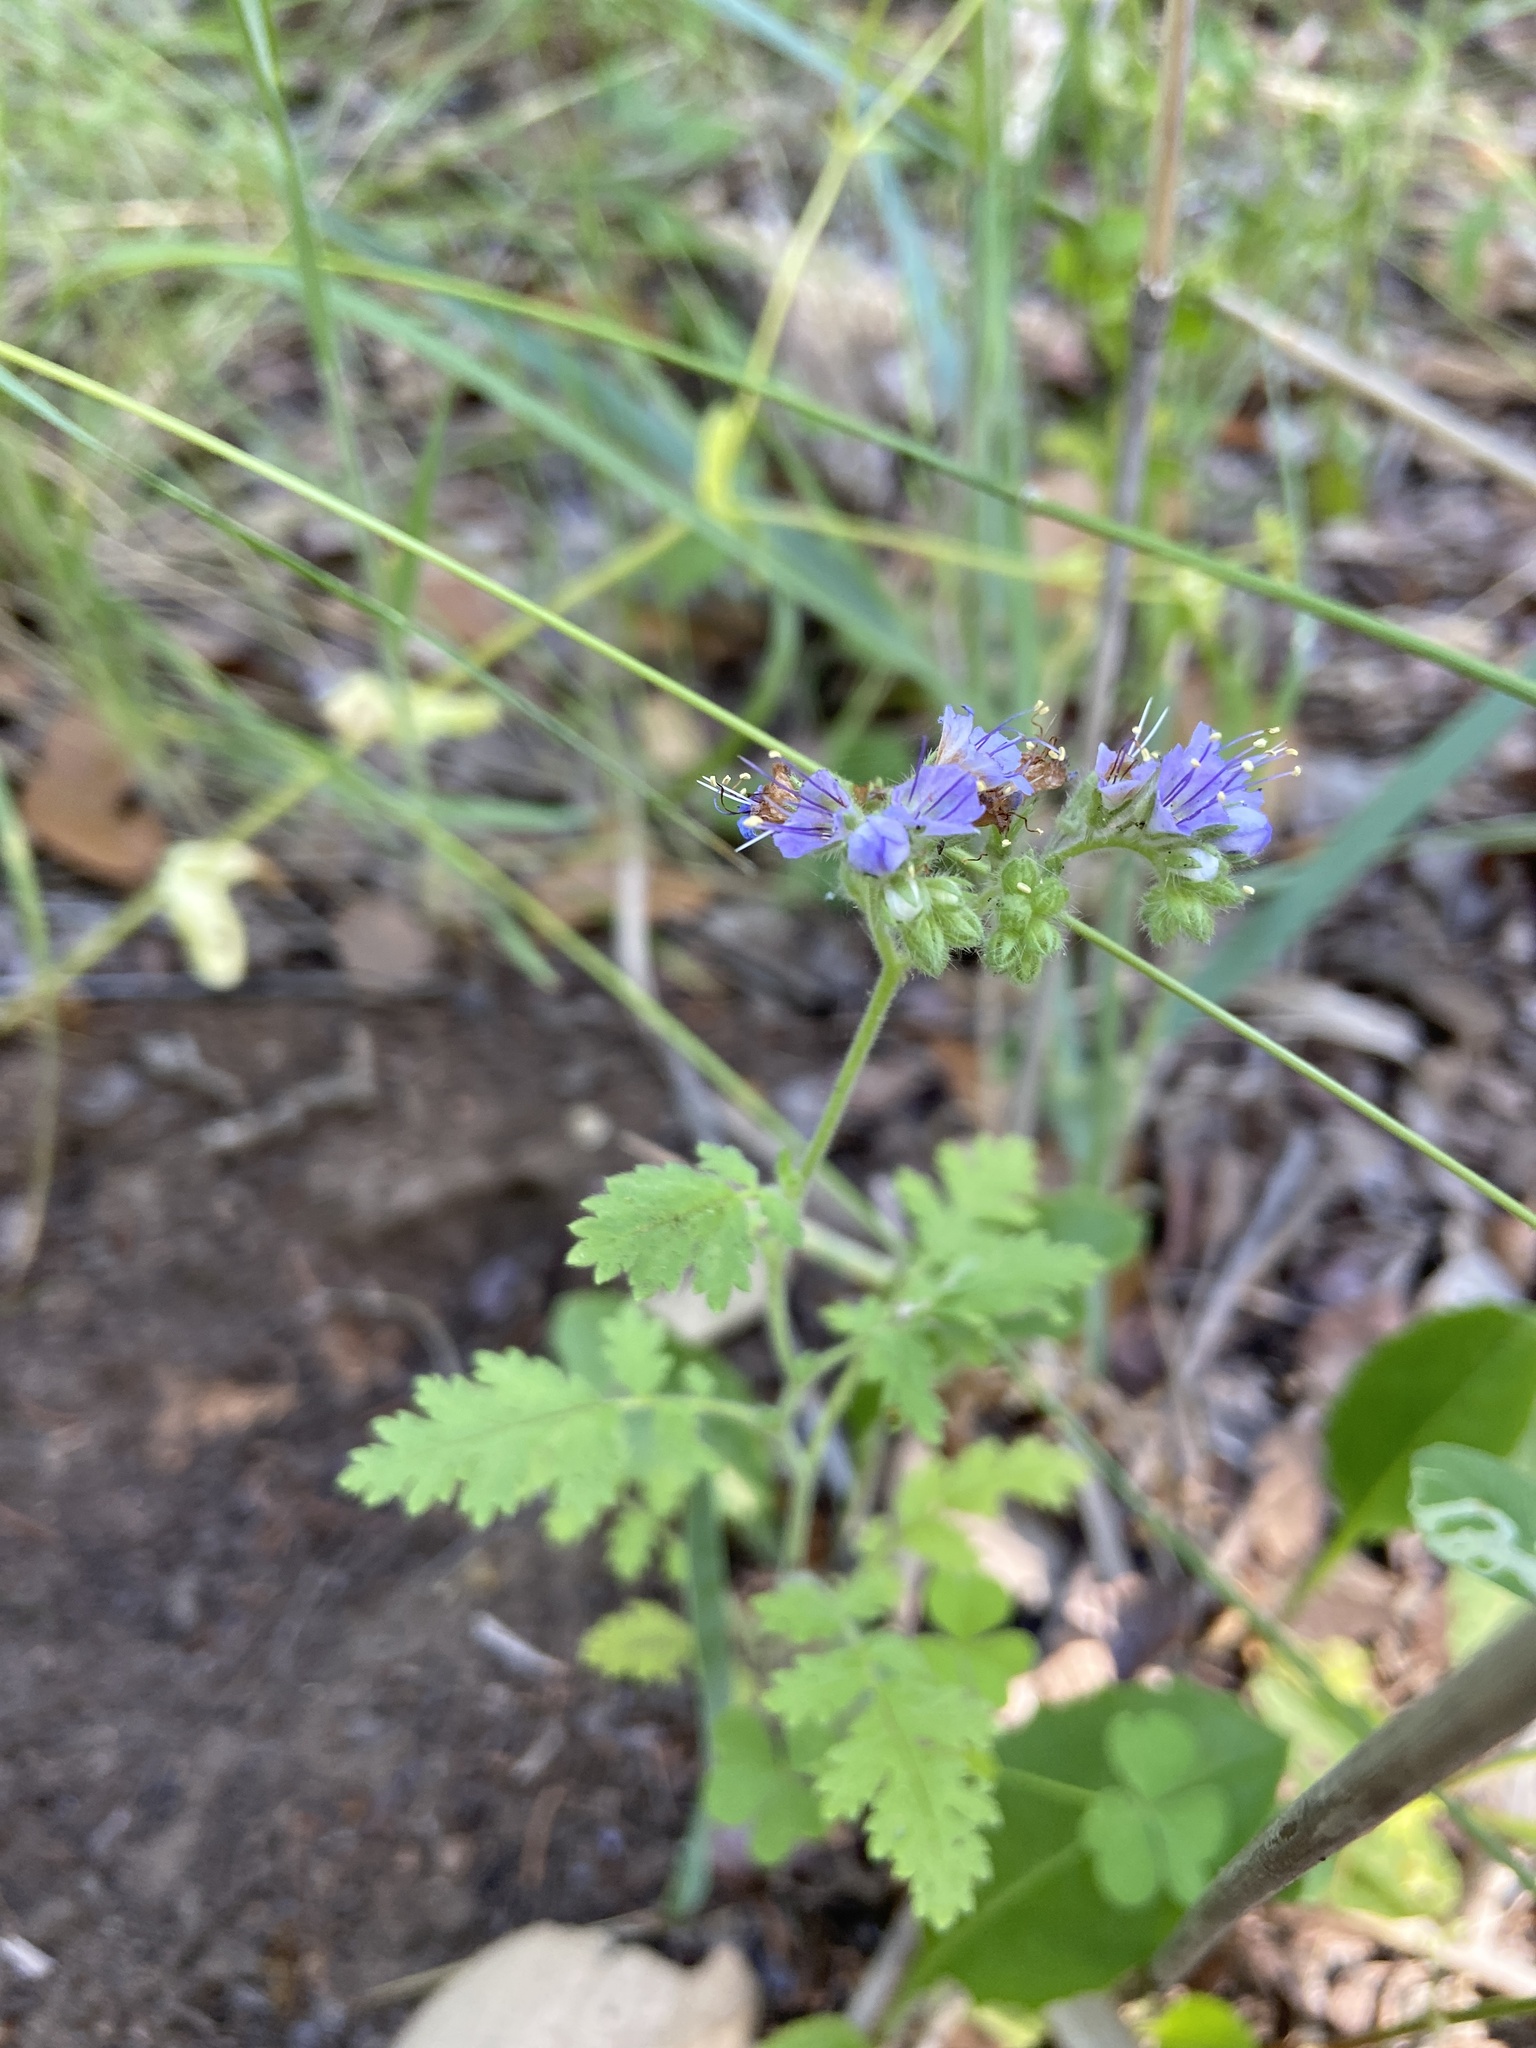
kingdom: Plantae
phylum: Tracheophyta
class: Magnoliopsida
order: Boraginales
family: Hydrophyllaceae
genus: Phacelia
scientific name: Phacelia congesta
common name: Blue curls
